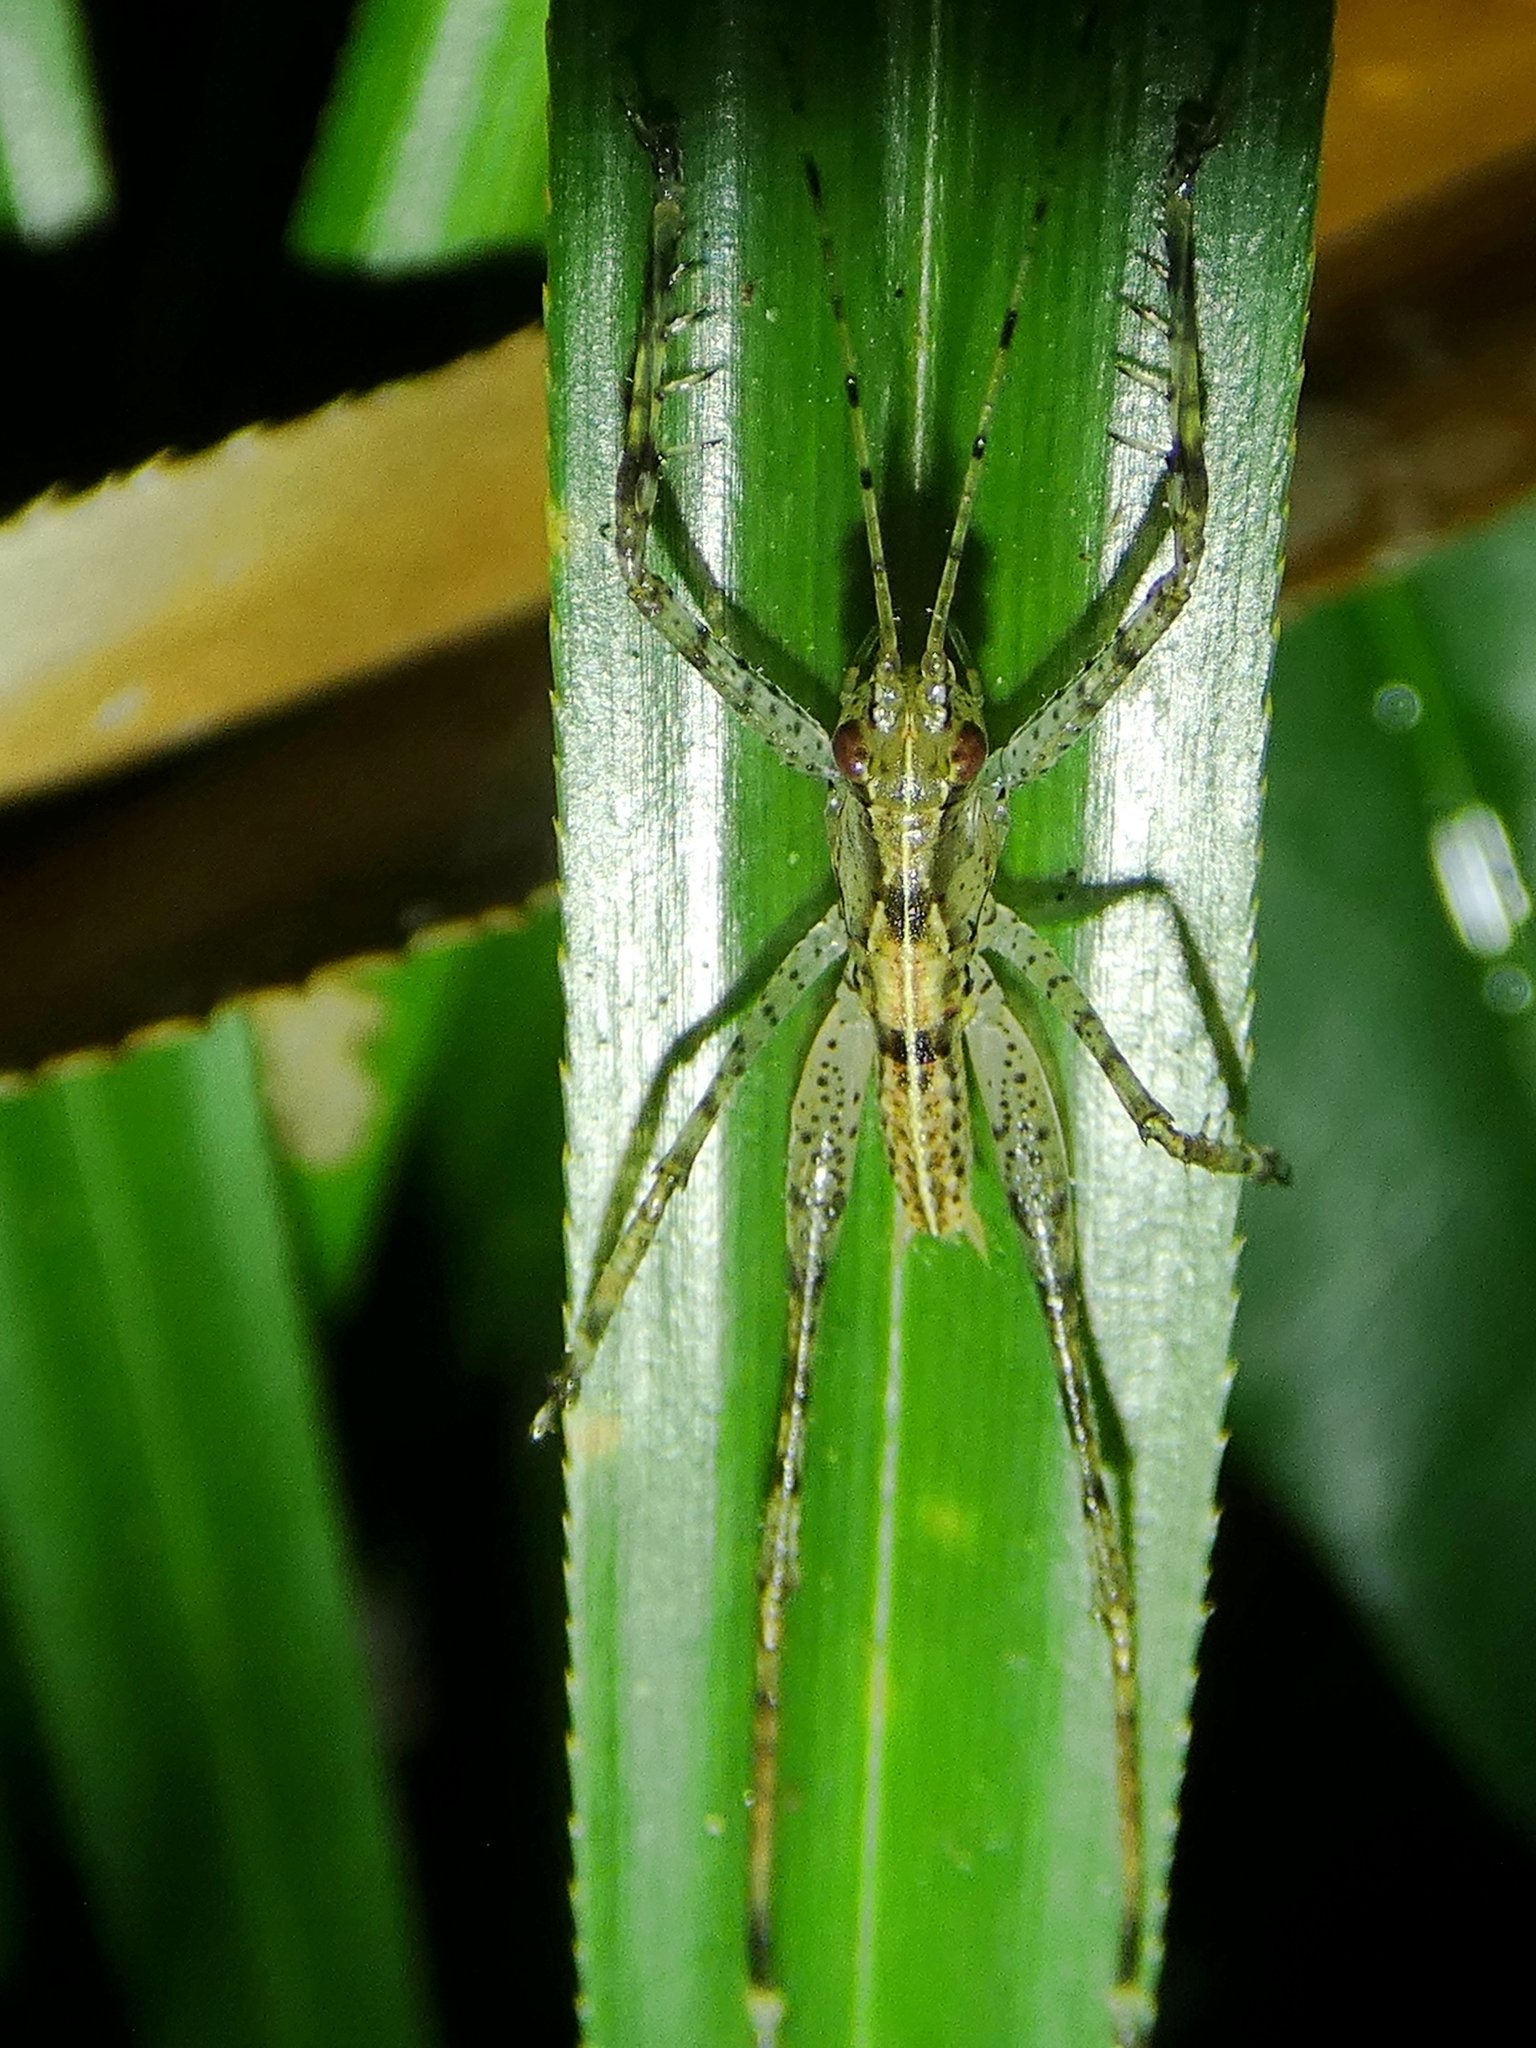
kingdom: Animalia
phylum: Arthropoda
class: Insecta
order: Orthoptera
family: Tettigoniidae
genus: Xingbaoia
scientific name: Xingbaoia karakara
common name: Jin's ginger katydid
